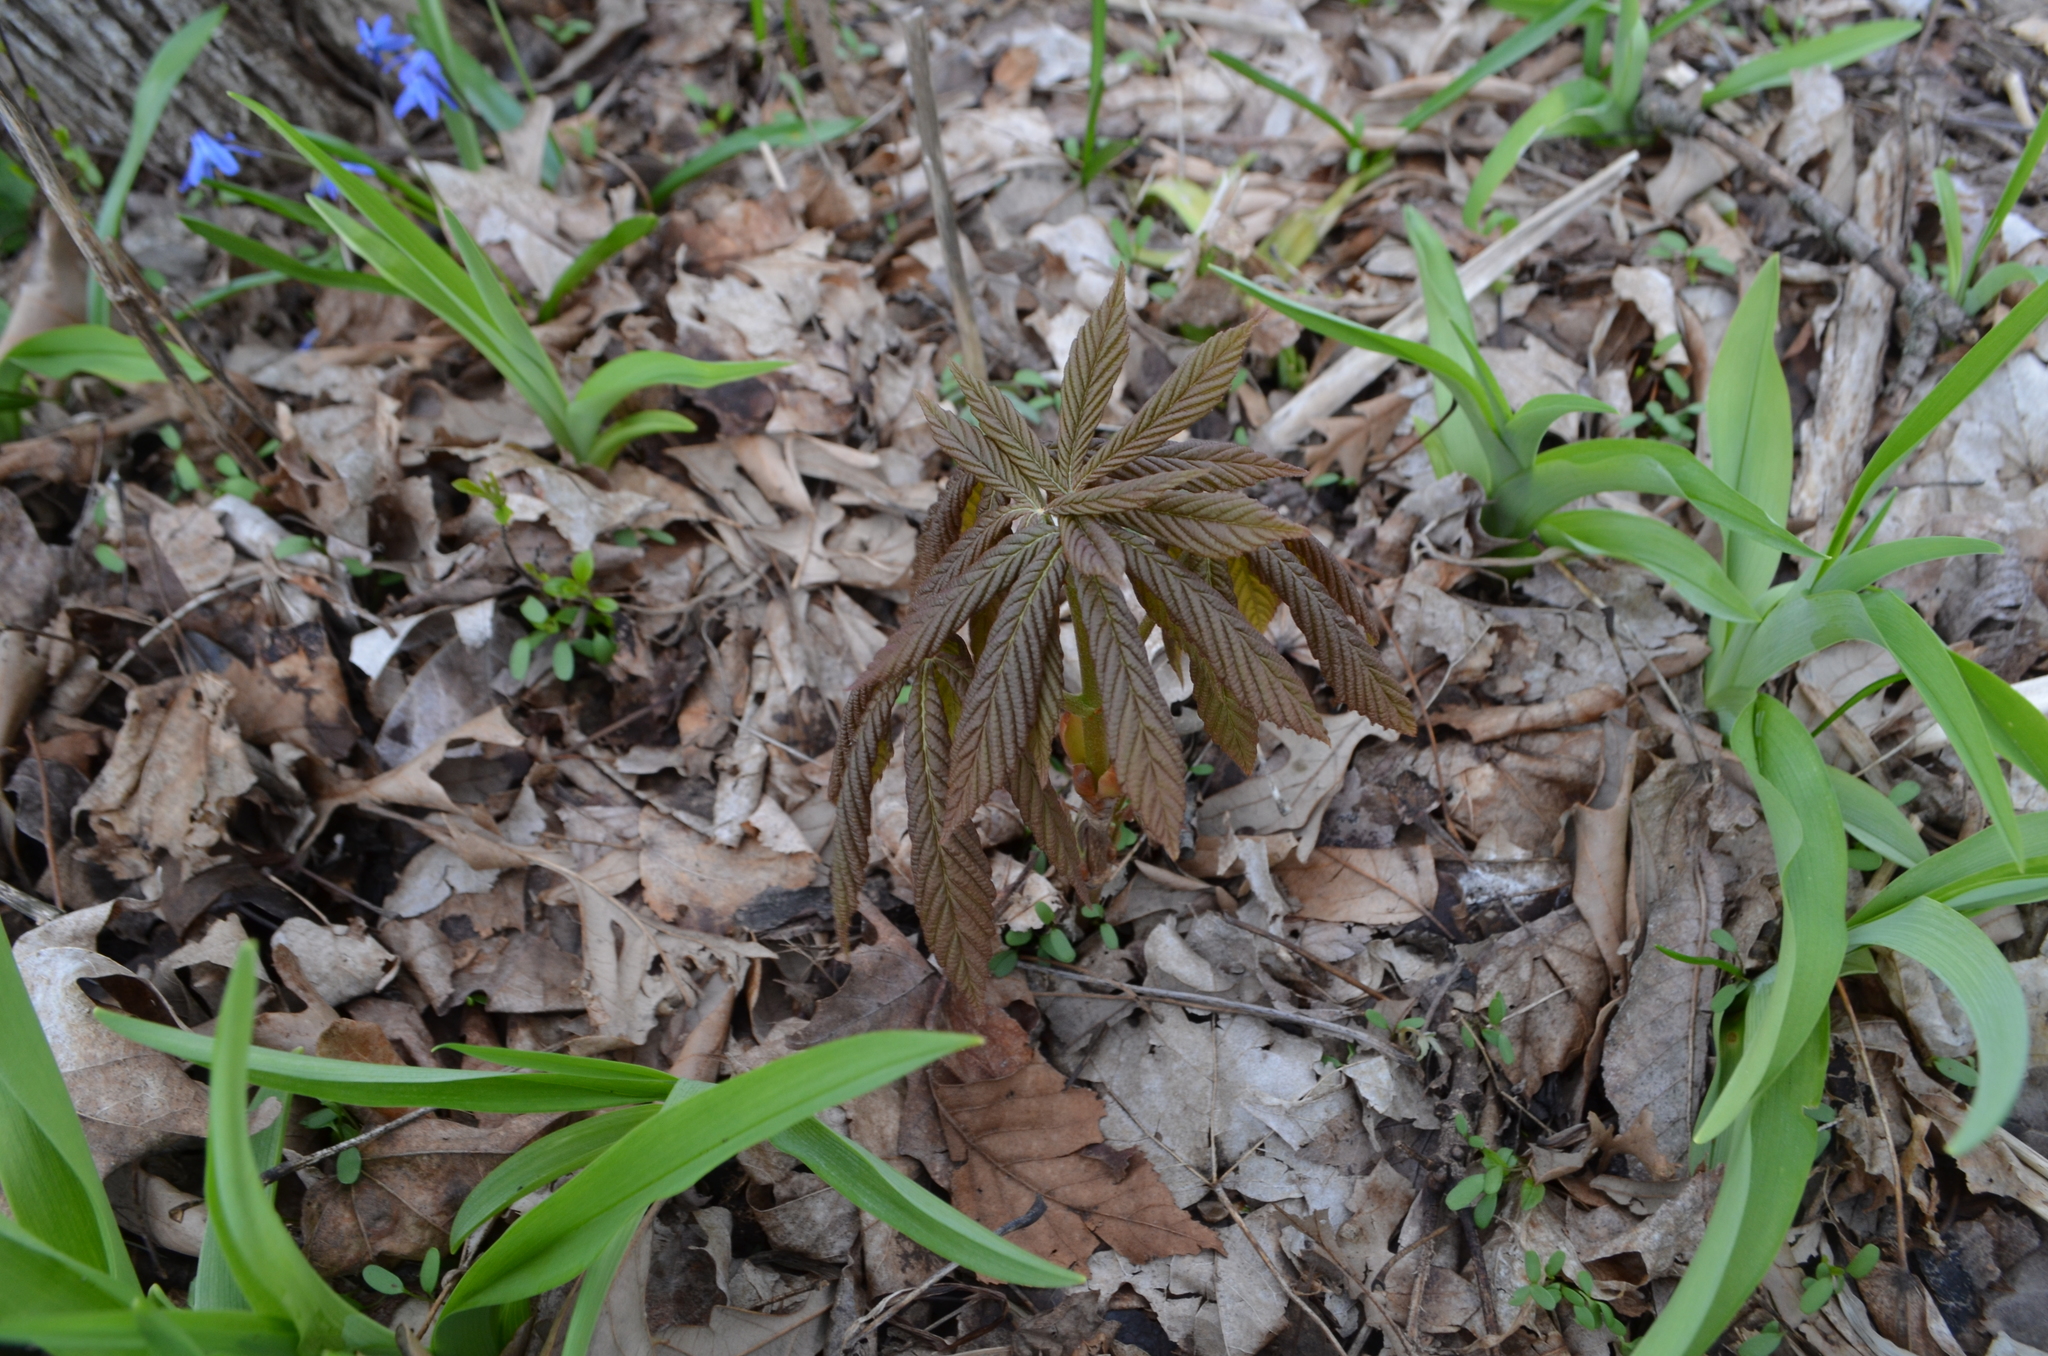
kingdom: Plantae
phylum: Tracheophyta
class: Magnoliopsida
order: Sapindales
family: Sapindaceae
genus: Aesculus
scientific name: Aesculus glabra
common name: Ohio buckeye
